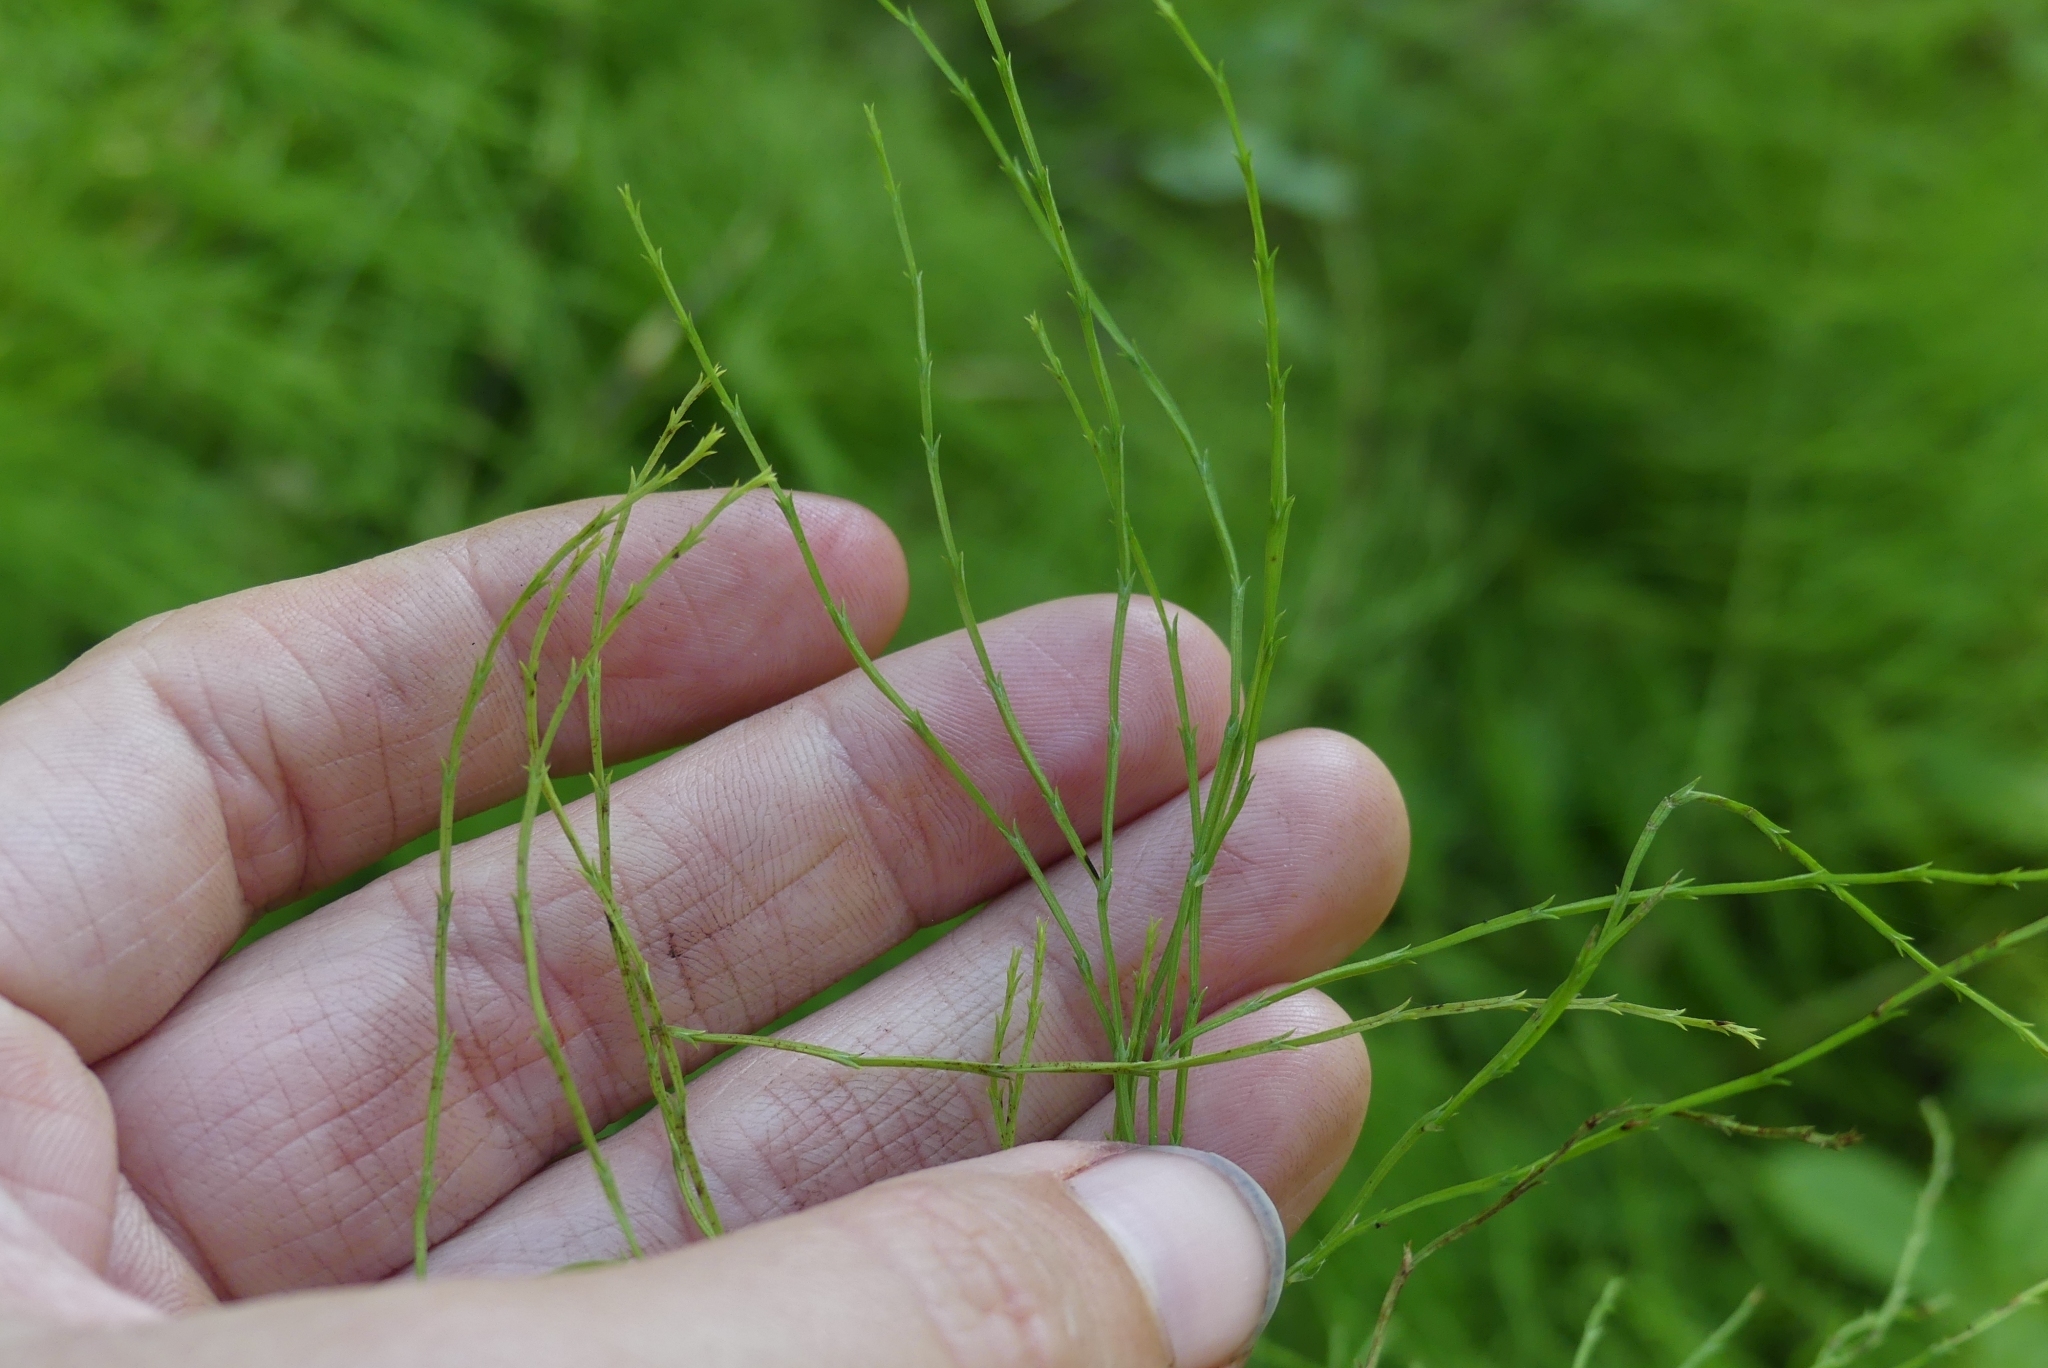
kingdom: Plantae
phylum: Tracheophyta
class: Polypodiopsida
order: Equisetales
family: Equisetaceae
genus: Equisetum
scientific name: Equisetum sylvaticum
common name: Wood horsetail
